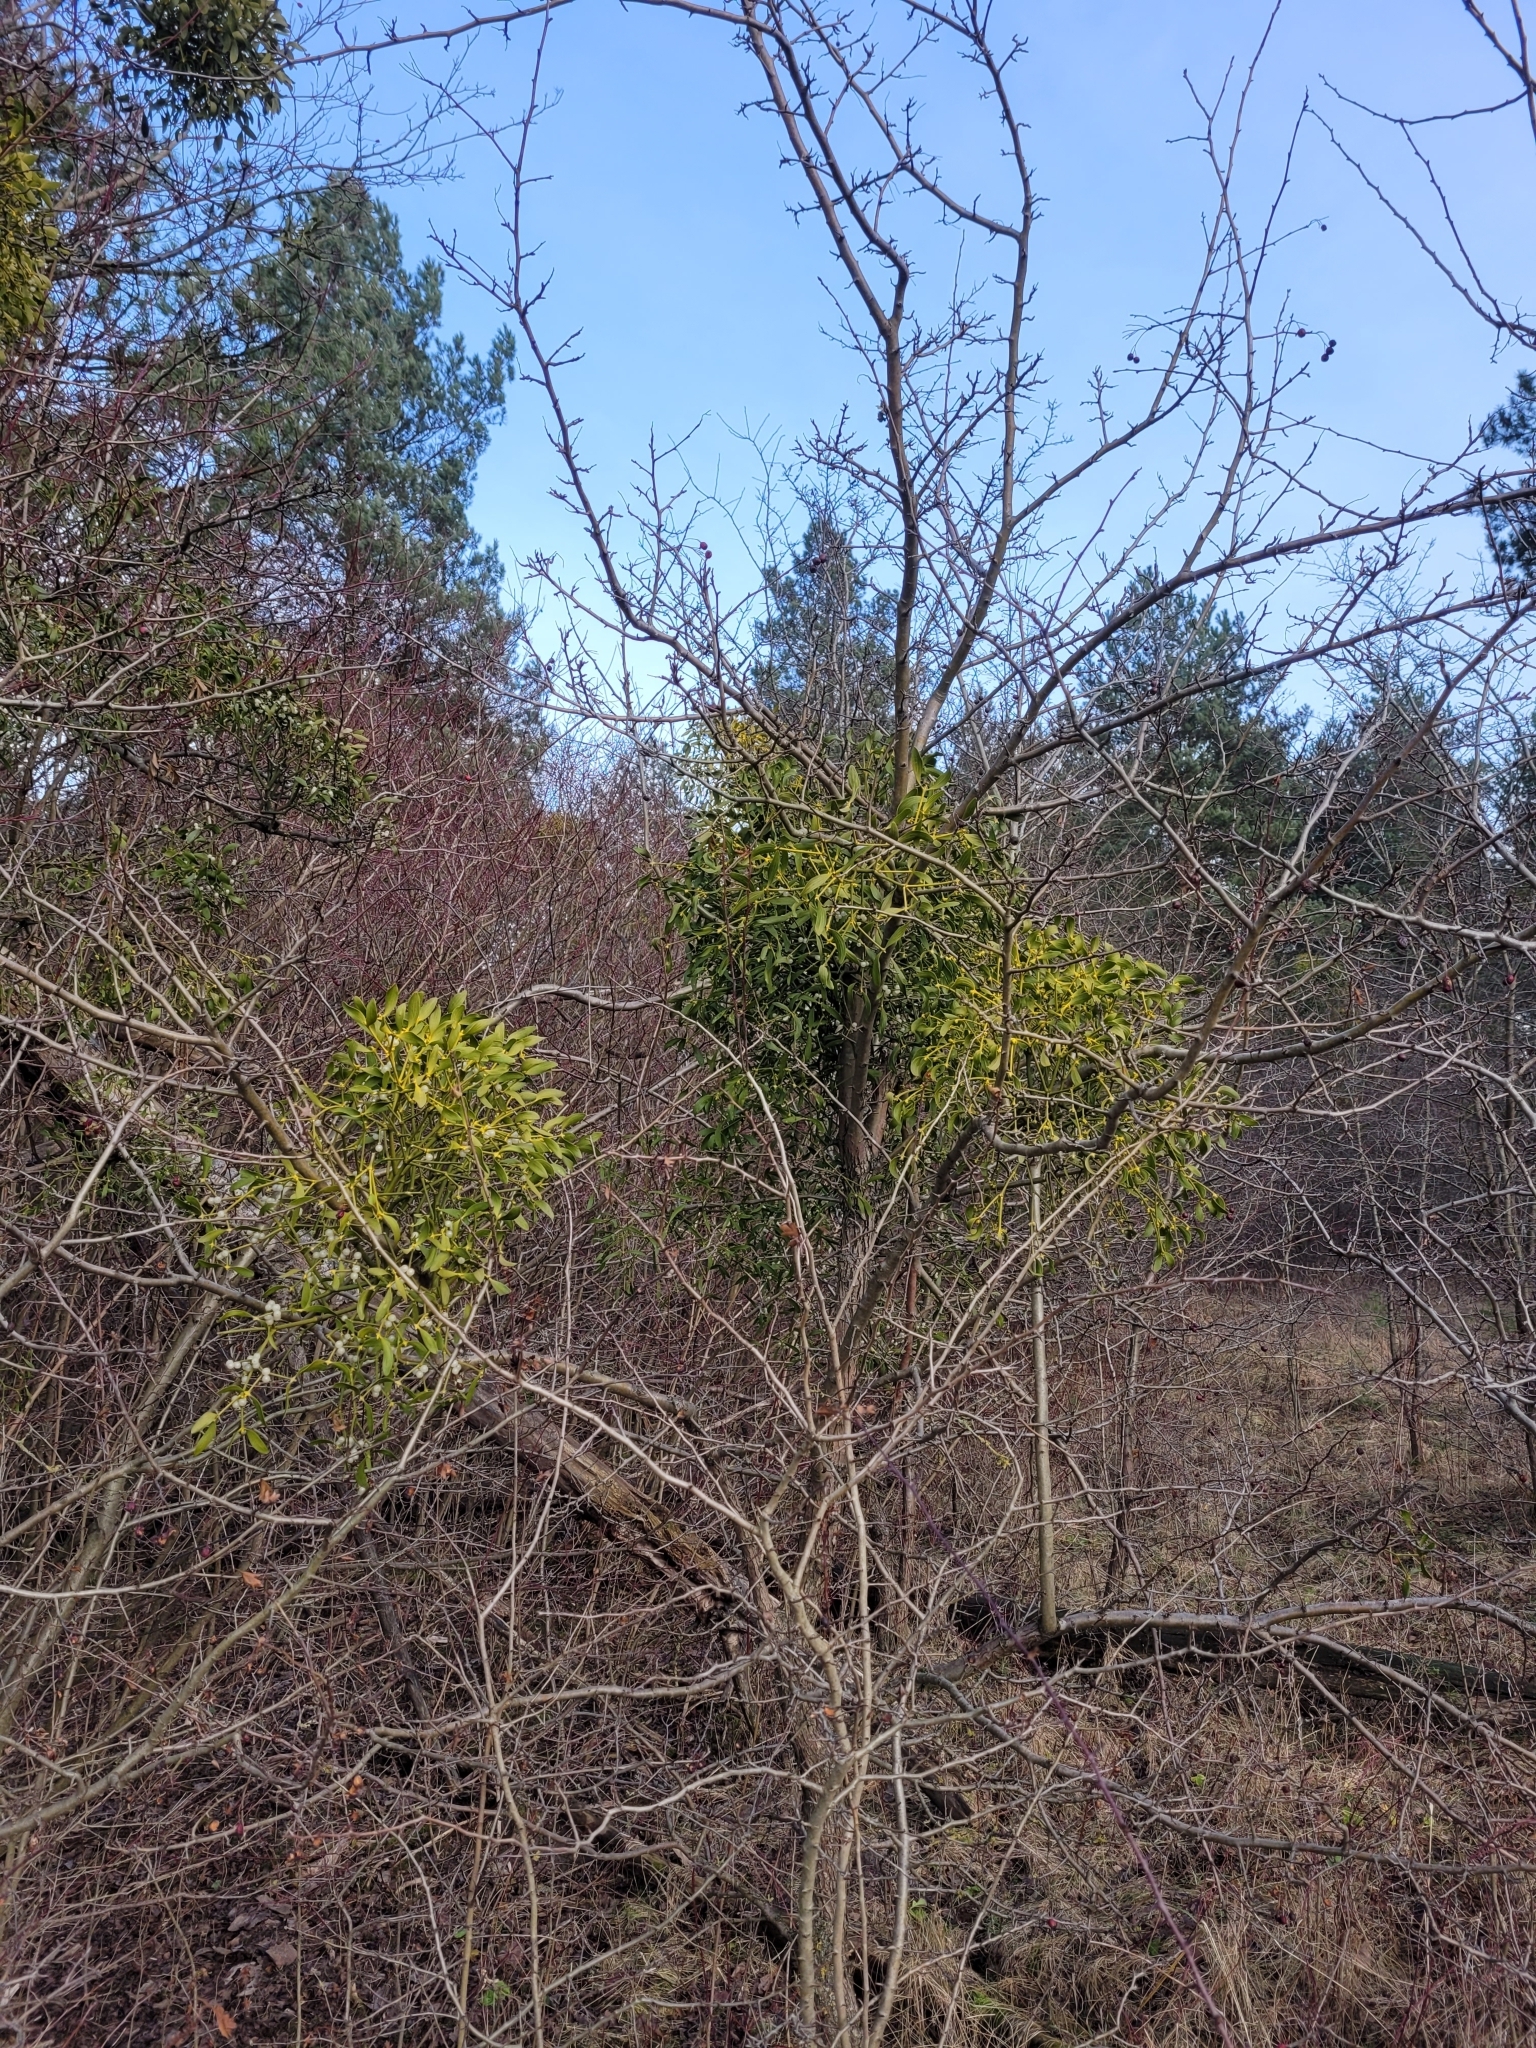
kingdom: Plantae
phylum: Tracheophyta
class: Magnoliopsida
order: Santalales
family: Viscaceae
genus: Viscum
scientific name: Viscum album
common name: Mistletoe
